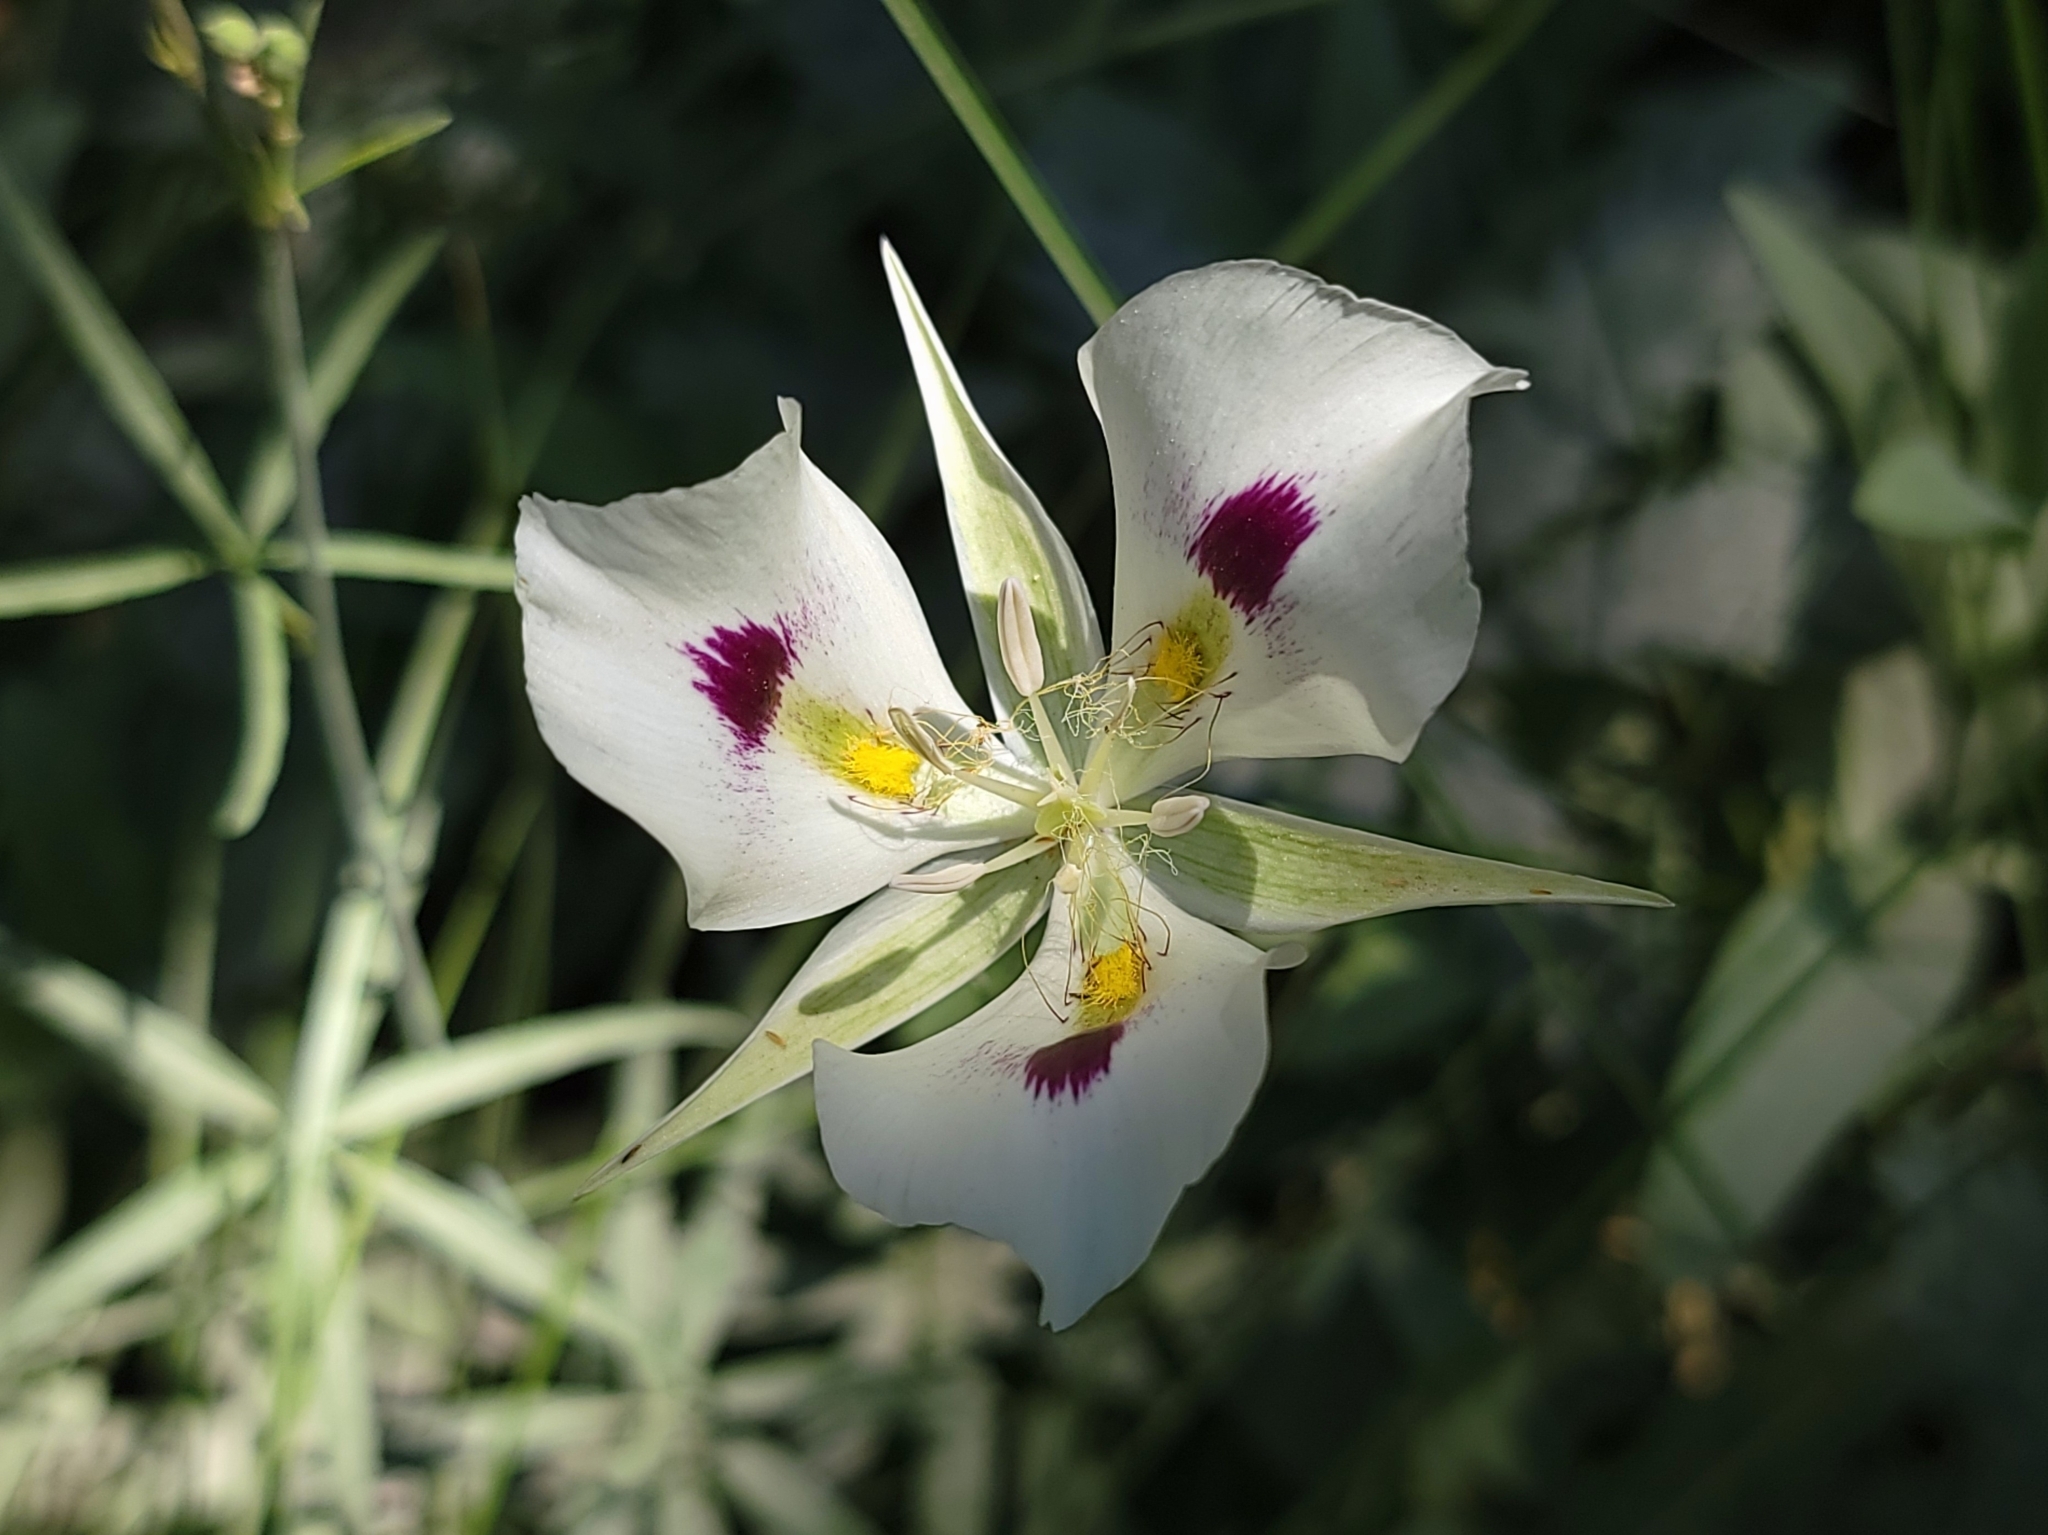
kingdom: Plantae
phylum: Tracheophyta
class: Liliopsida
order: Liliales
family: Liliaceae
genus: Calochortus
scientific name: Calochortus eurycarpus
